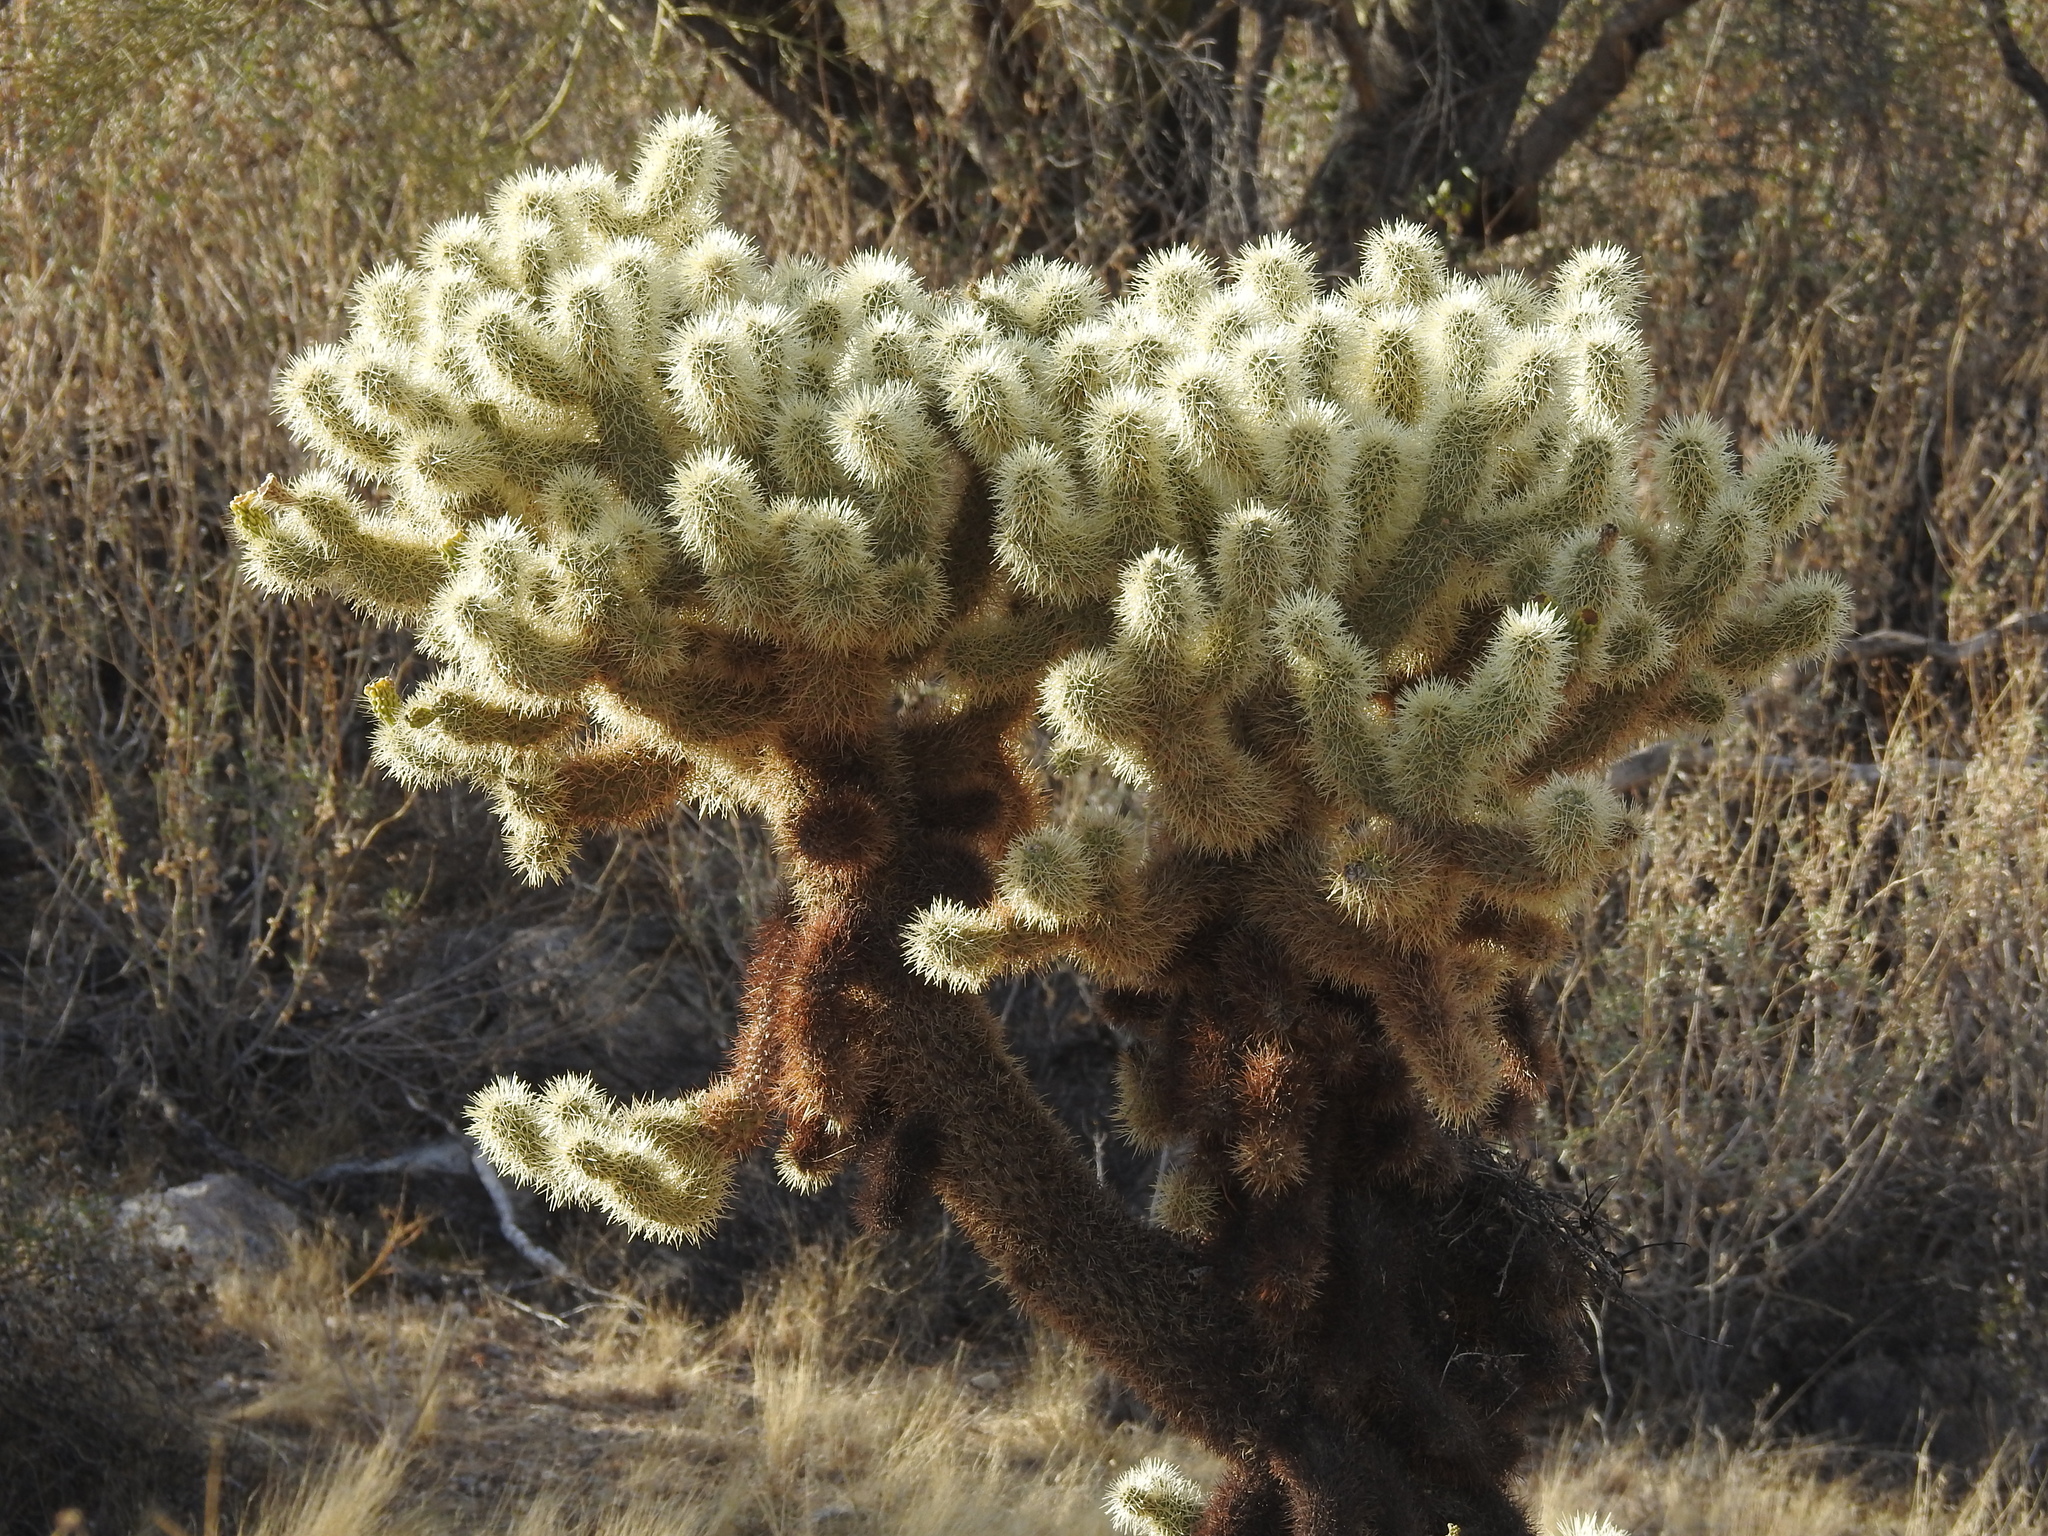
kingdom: Plantae
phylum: Tracheophyta
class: Magnoliopsida
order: Caryophyllales
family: Cactaceae
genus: Cylindropuntia
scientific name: Cylindropuntia fosbergii
